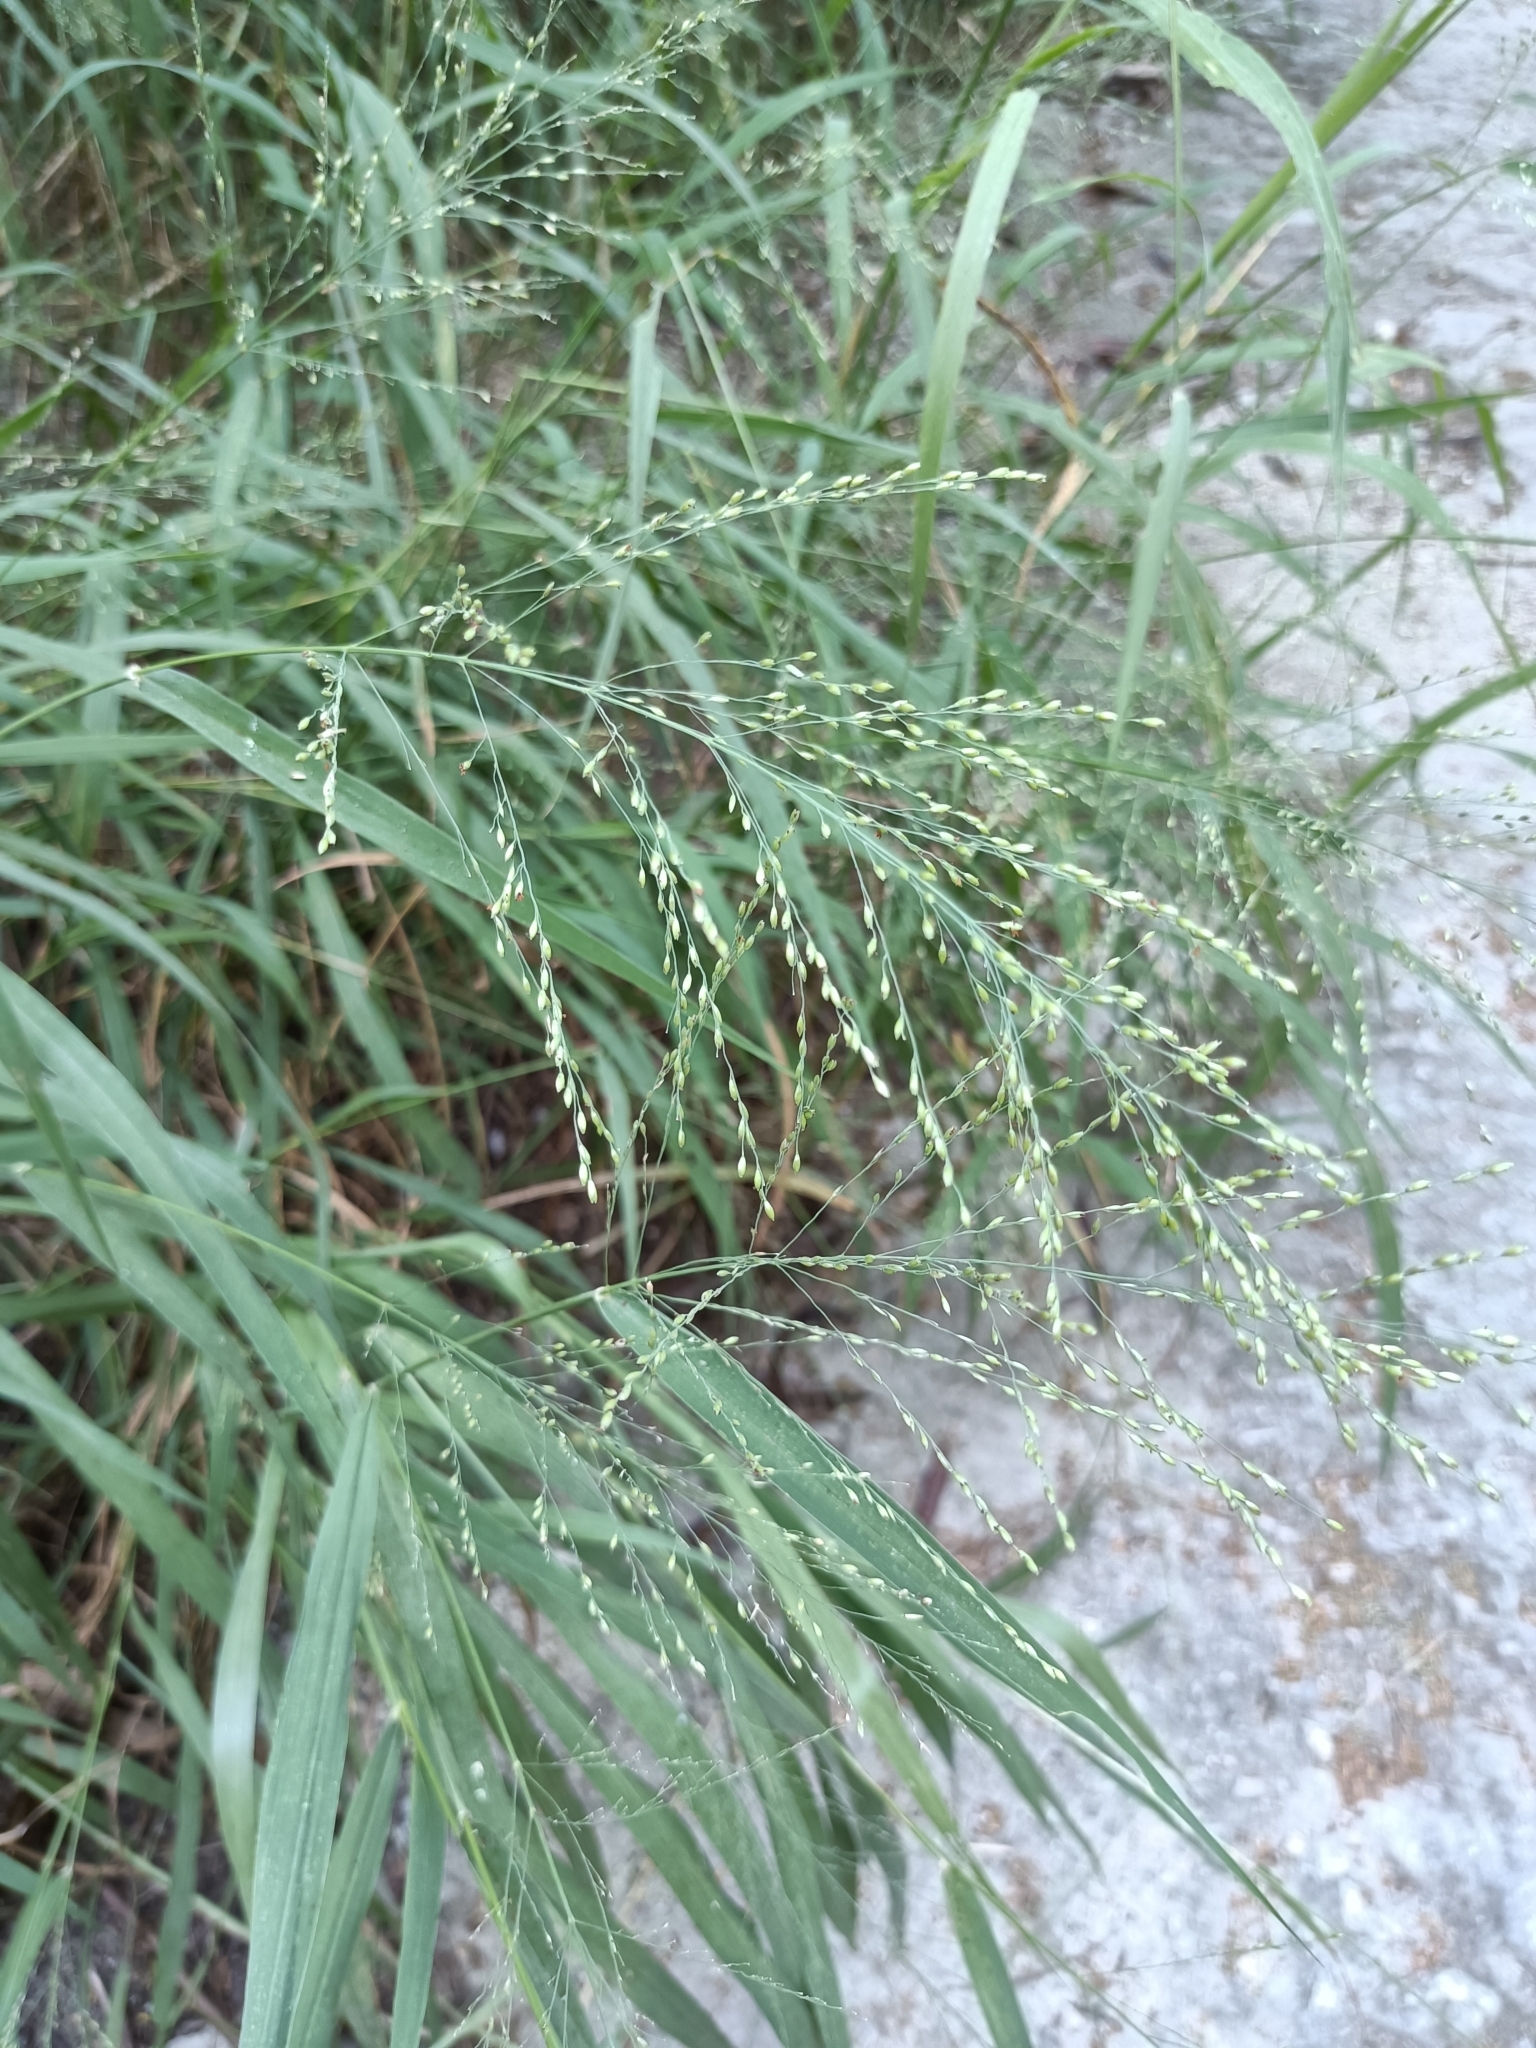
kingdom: Plantae
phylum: Tracheophyta
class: Liliopsida
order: Poales
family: Poaceae
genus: Megathyrsus
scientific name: Megathyrsus maximus
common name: Guineagrass
